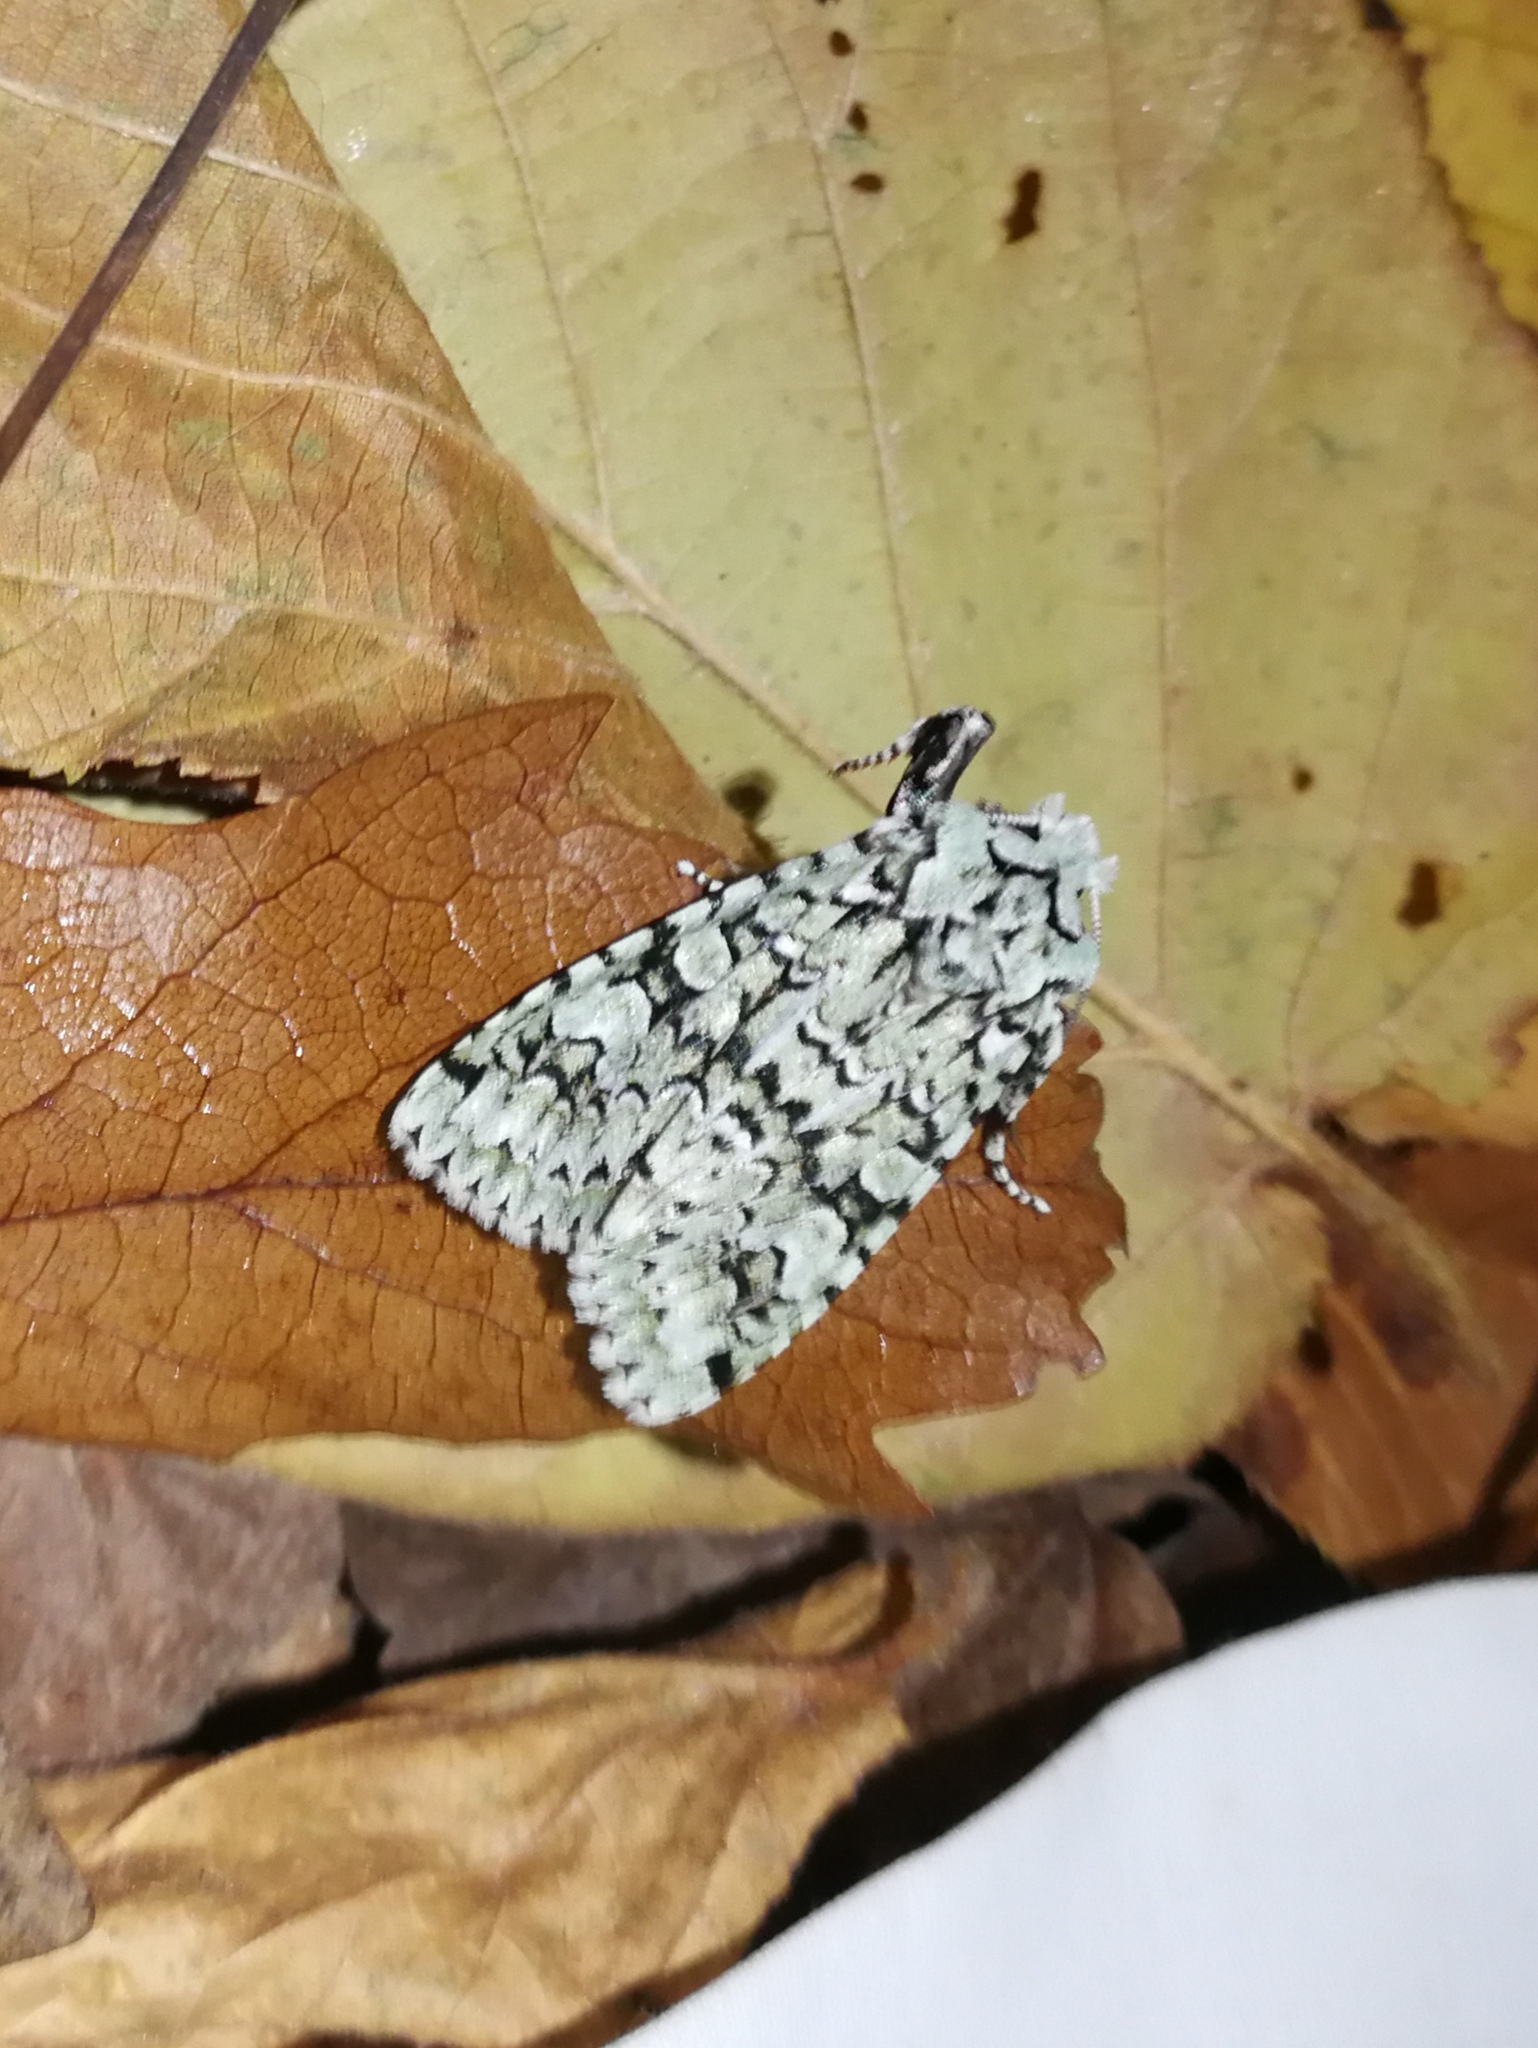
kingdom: Animalia
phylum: Arthropoda
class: Insecta
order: Lepidoptera
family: Noctuidae
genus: Griposia
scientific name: Griposia aprilina
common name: Merveille du jour
